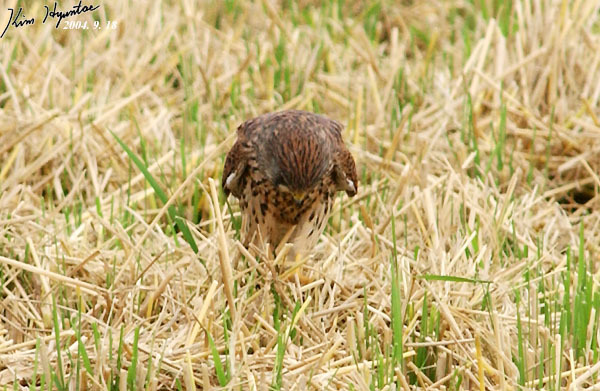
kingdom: Animalia
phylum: Chordata
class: Aves
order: Falconiformes
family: Falconidae
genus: Falco
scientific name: Falco tinnunculus
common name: Common kestrel
